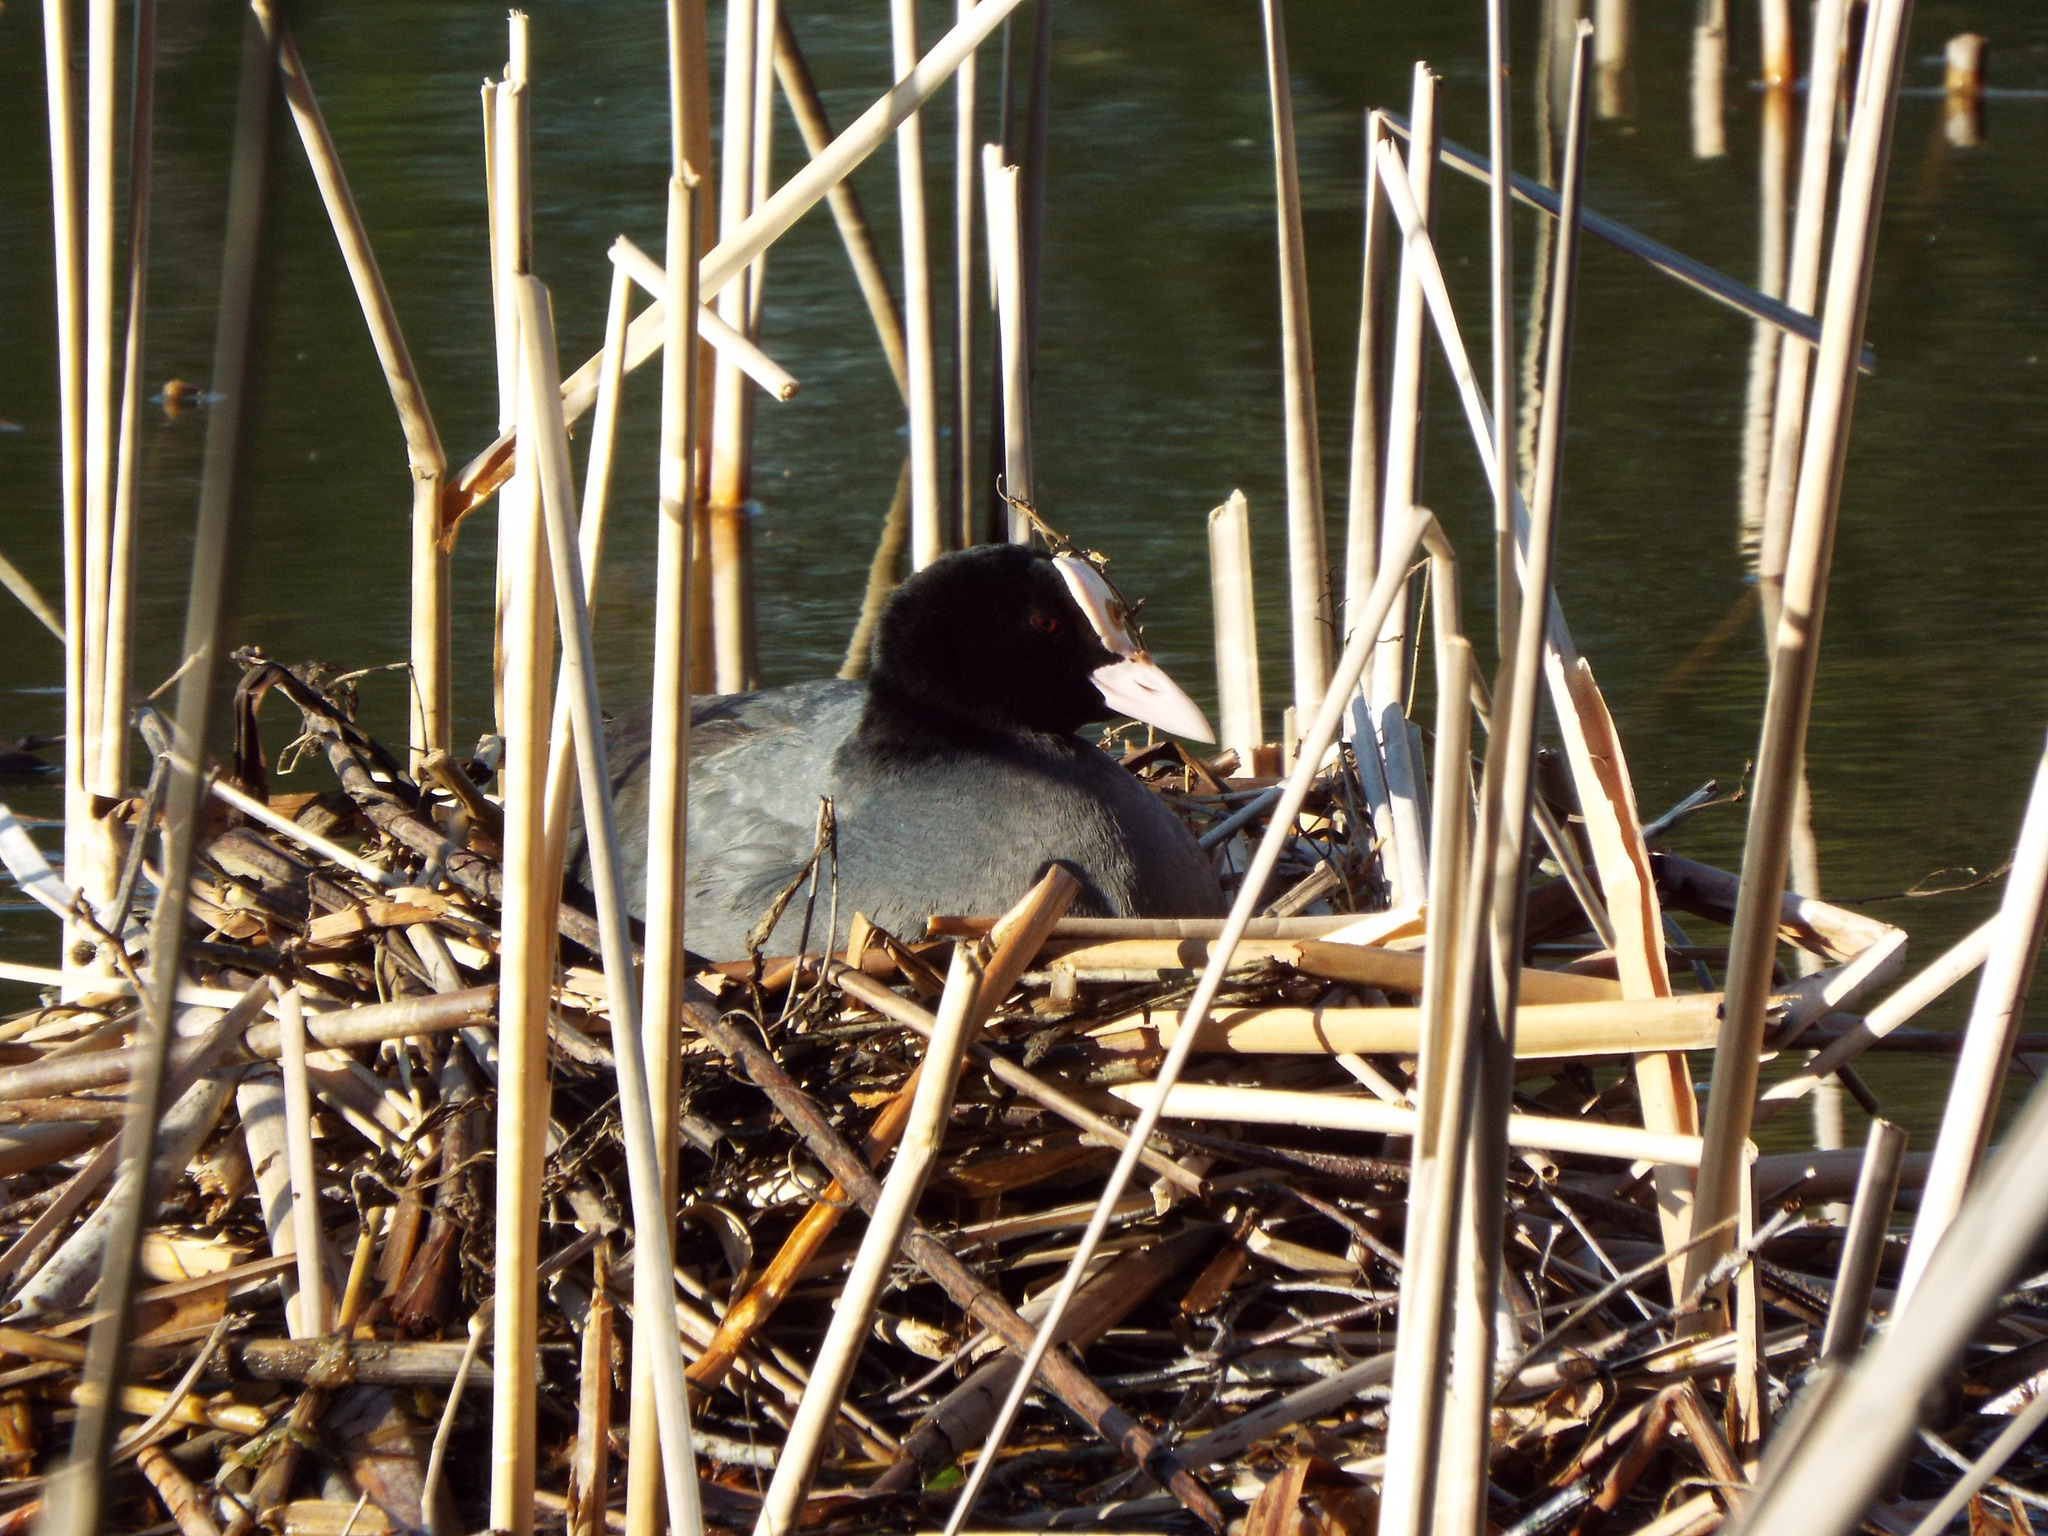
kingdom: Animalia
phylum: Chordata
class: Aves
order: Gruiformes
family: Rallidae
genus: Fulica
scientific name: Fulica atra
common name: Eurasian coot
